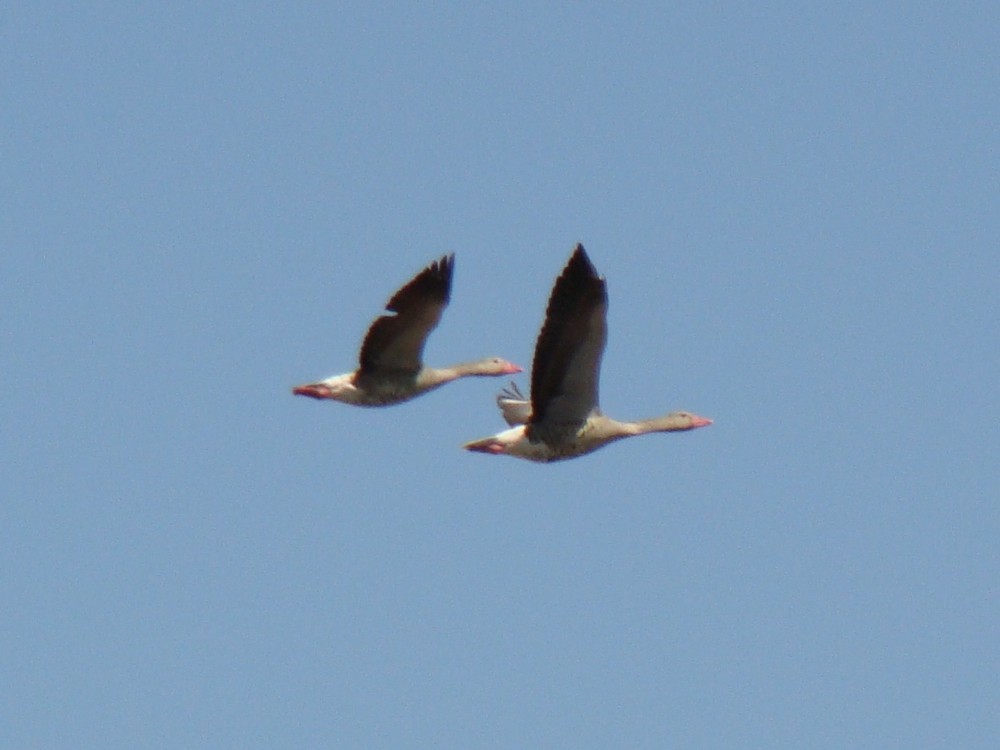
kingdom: Animalia
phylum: Chordata
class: Aves
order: Anseriformes
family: Anatidae
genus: Anser
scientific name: Anser anser
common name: Greylag goose
